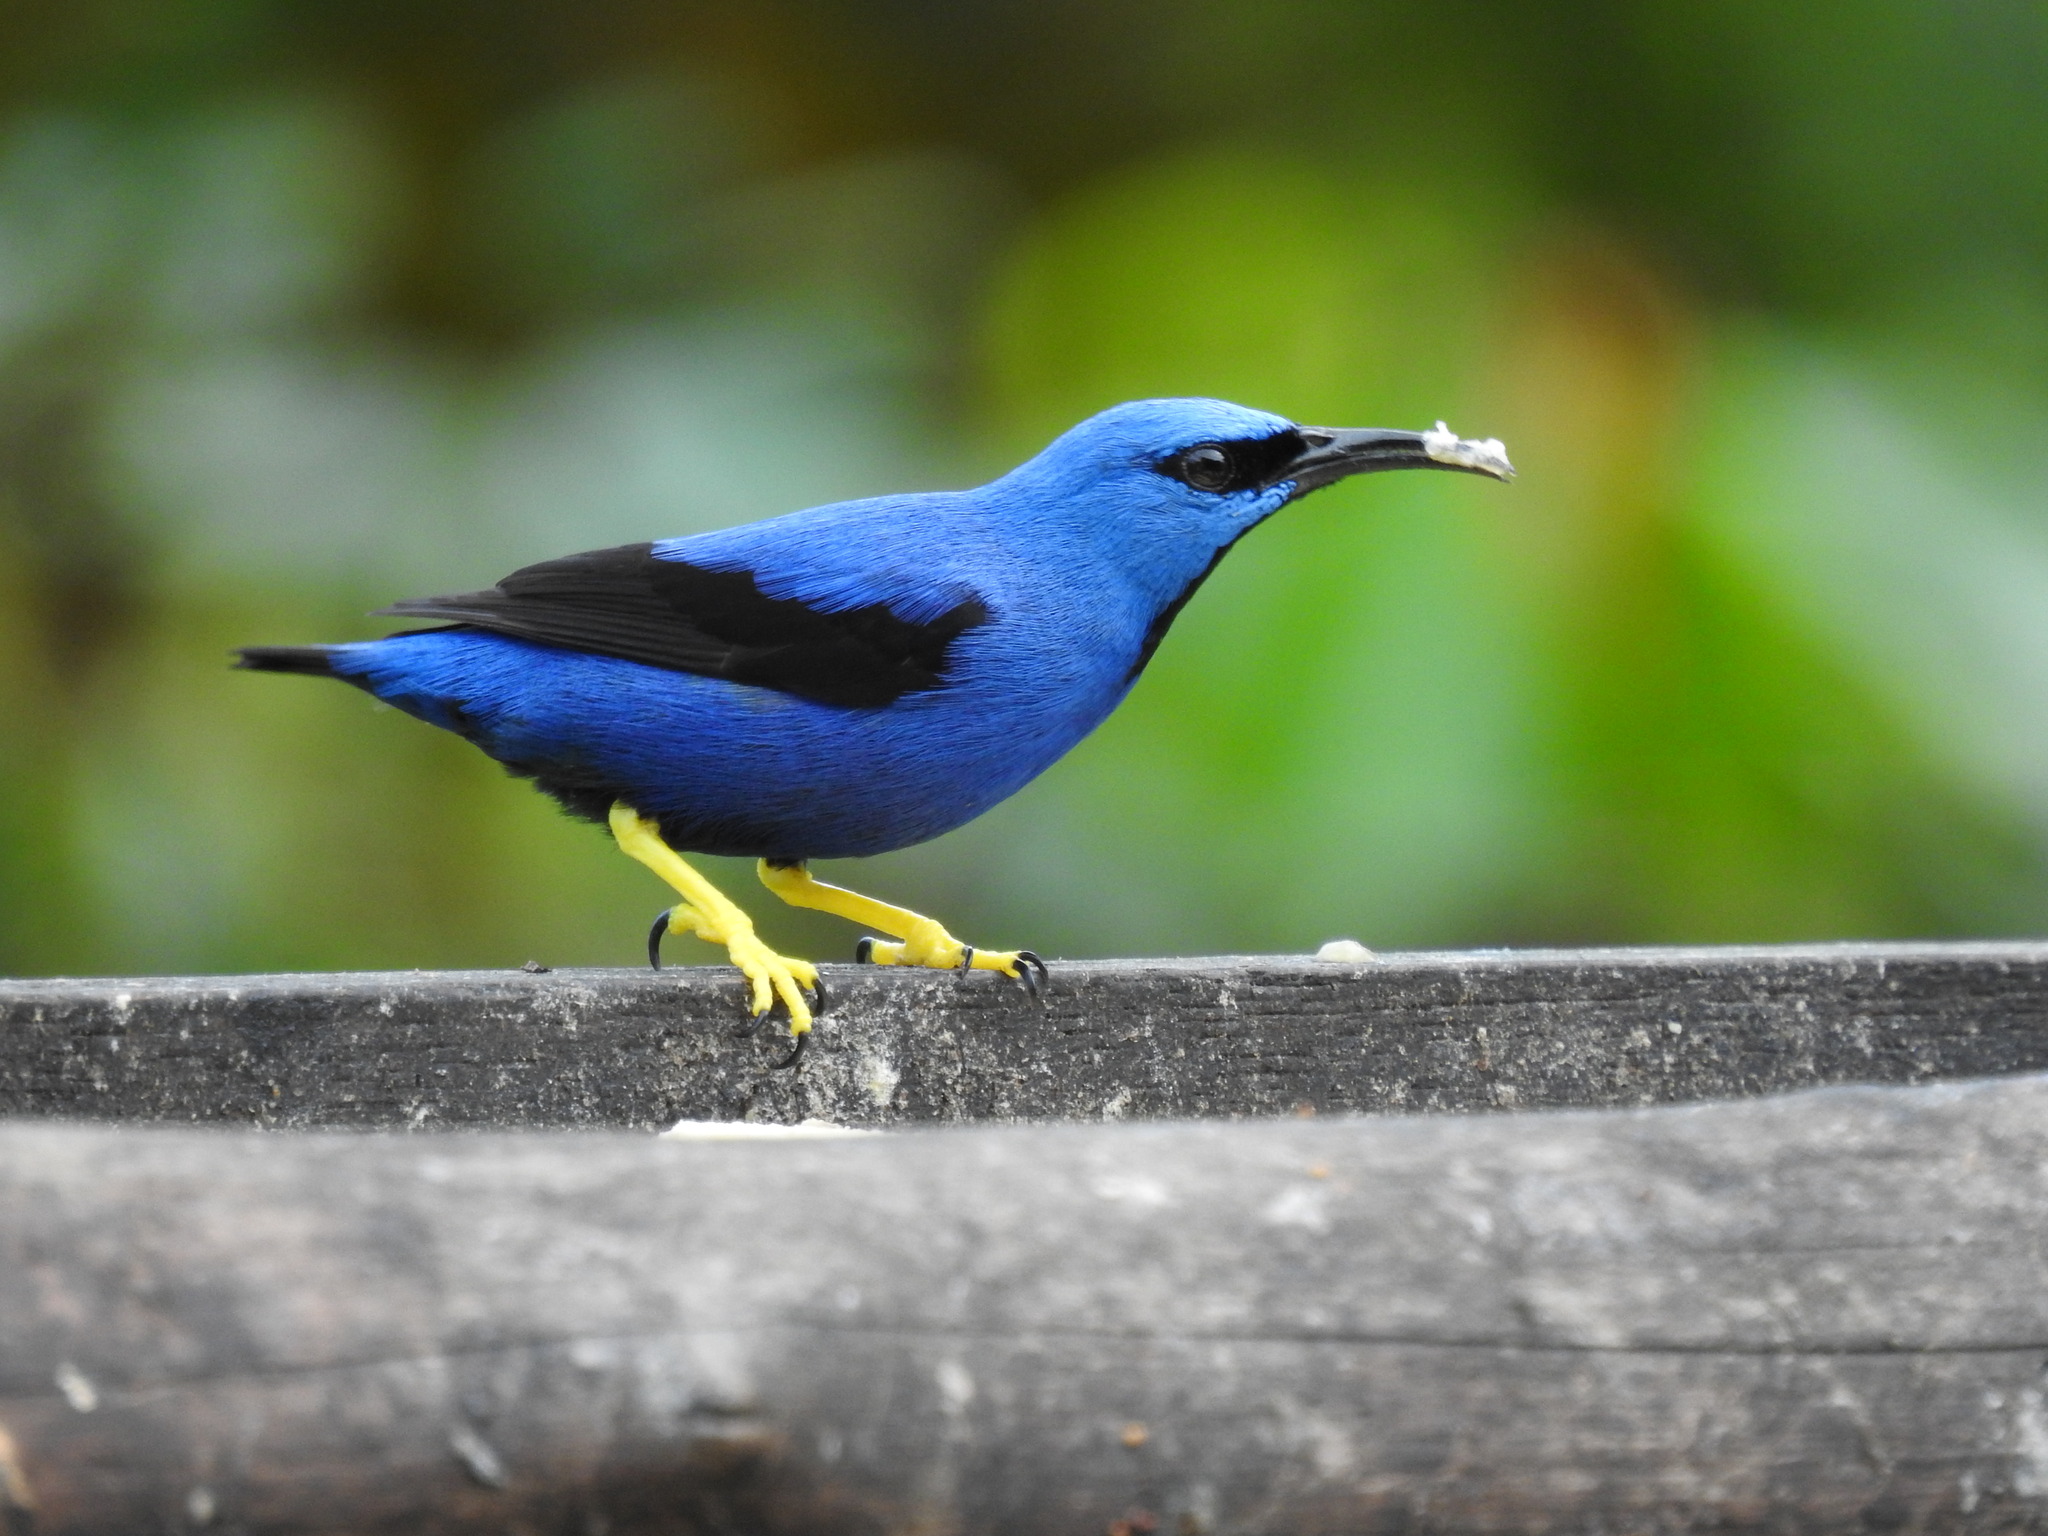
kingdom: Animalia
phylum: Chordata
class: Aves
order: Passeriformes
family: Thraupidae
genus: Cyanerpes
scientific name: Cyanerpes lucidus
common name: Shining honeycreeper
